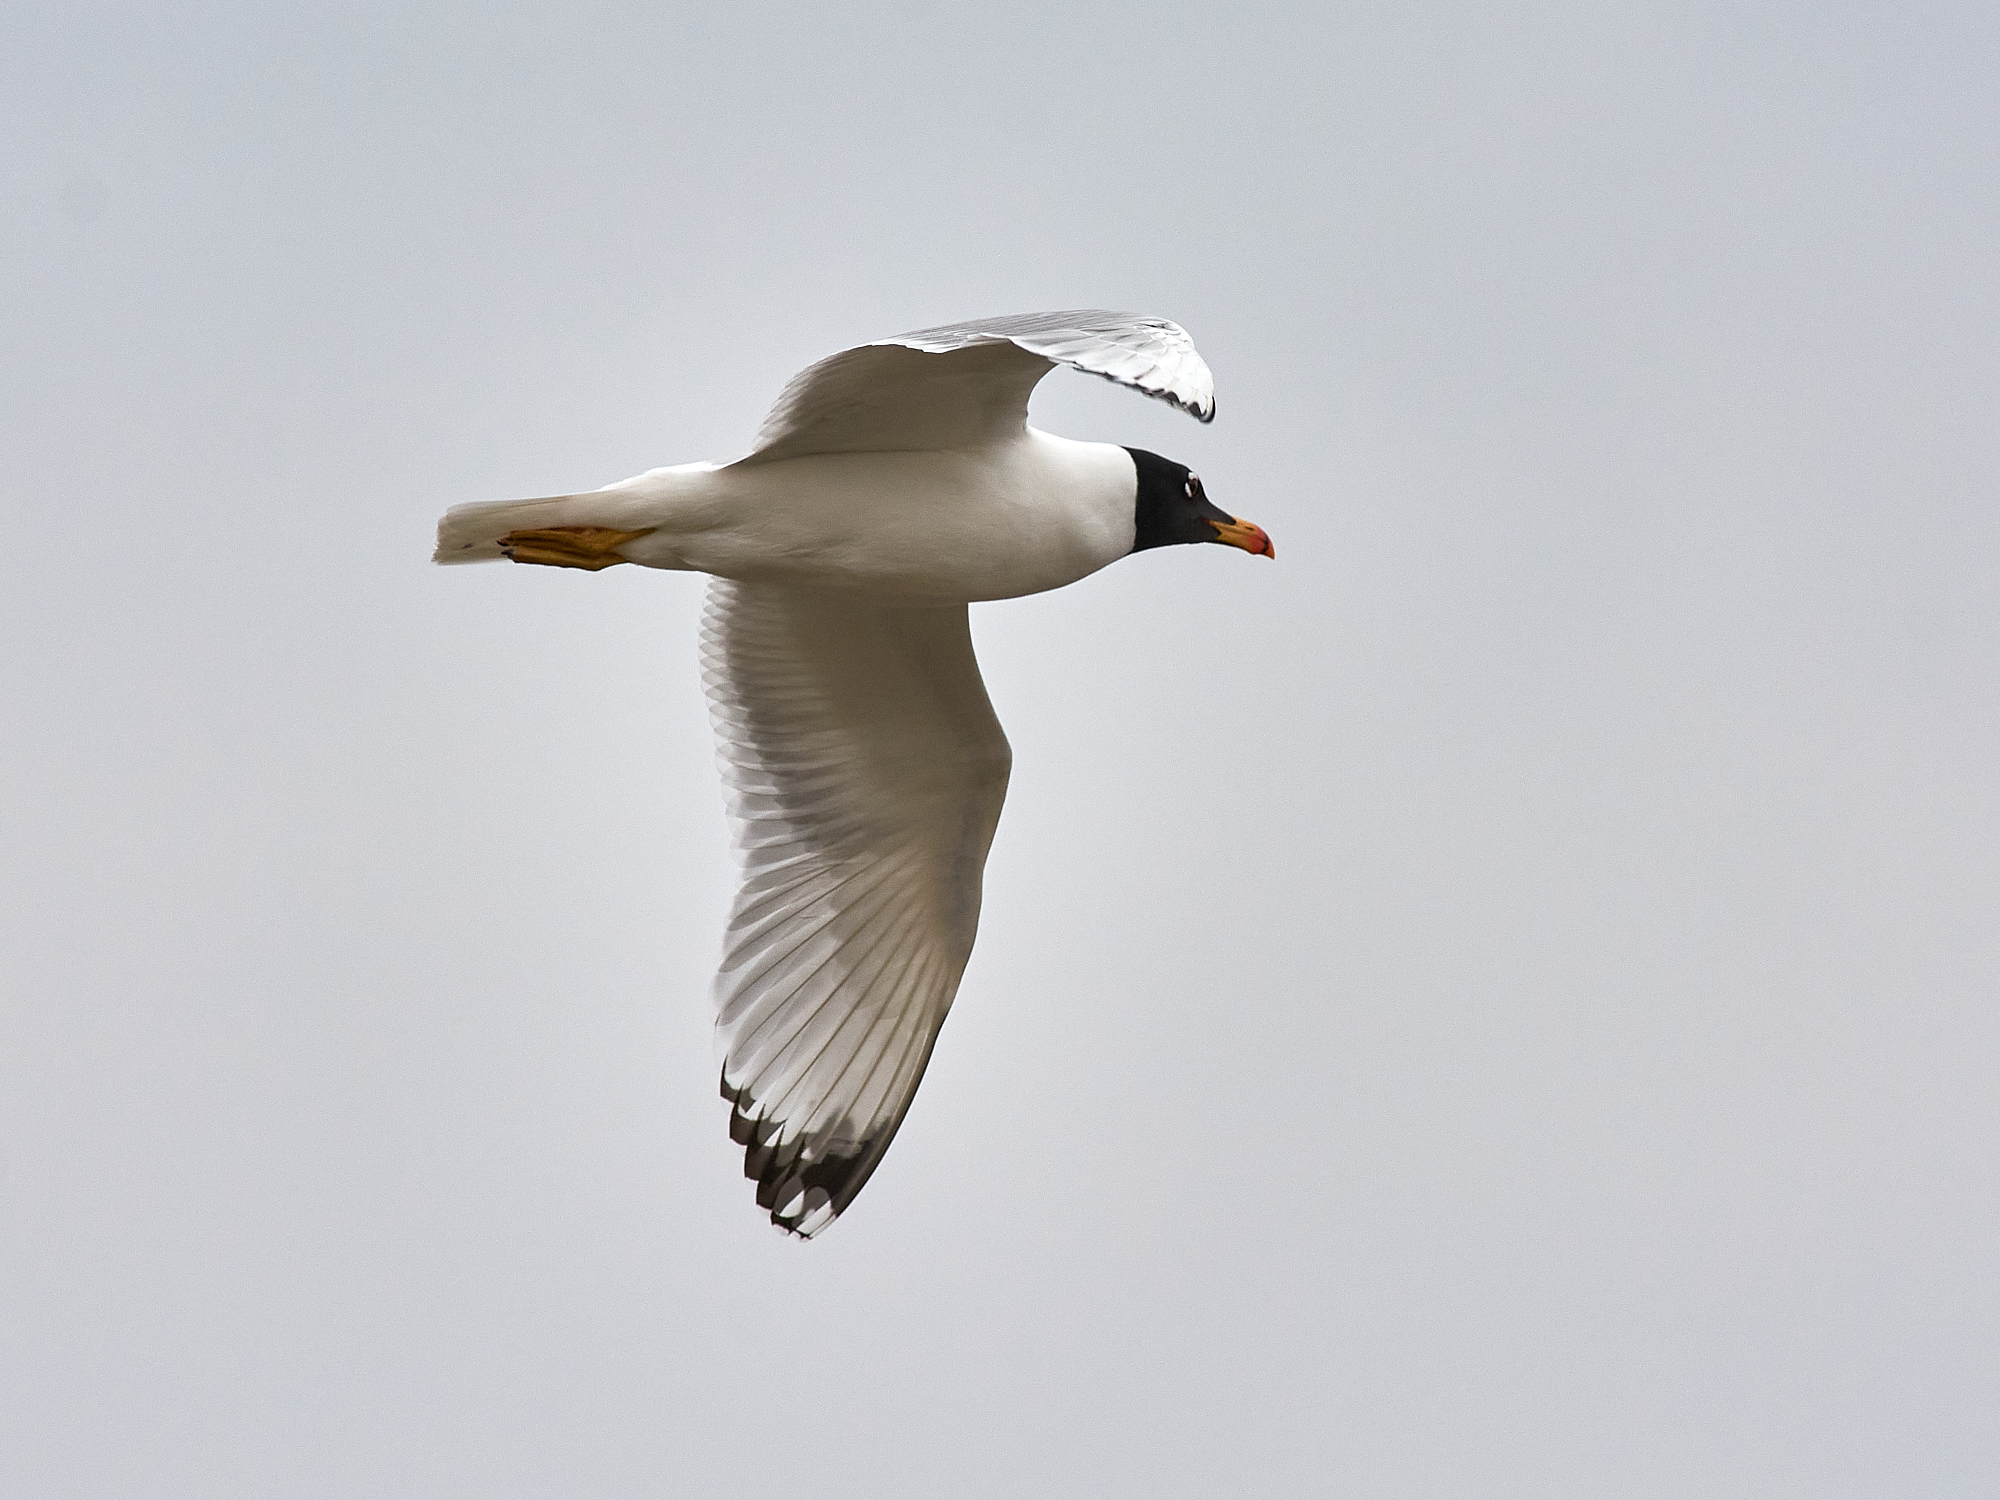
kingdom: Animalia
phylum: Chordata
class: Aves
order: Charadriiformes
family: Laridae
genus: Ichthyaetus
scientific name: Ichthyaetus ichthyaetus
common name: Pallas's gull
